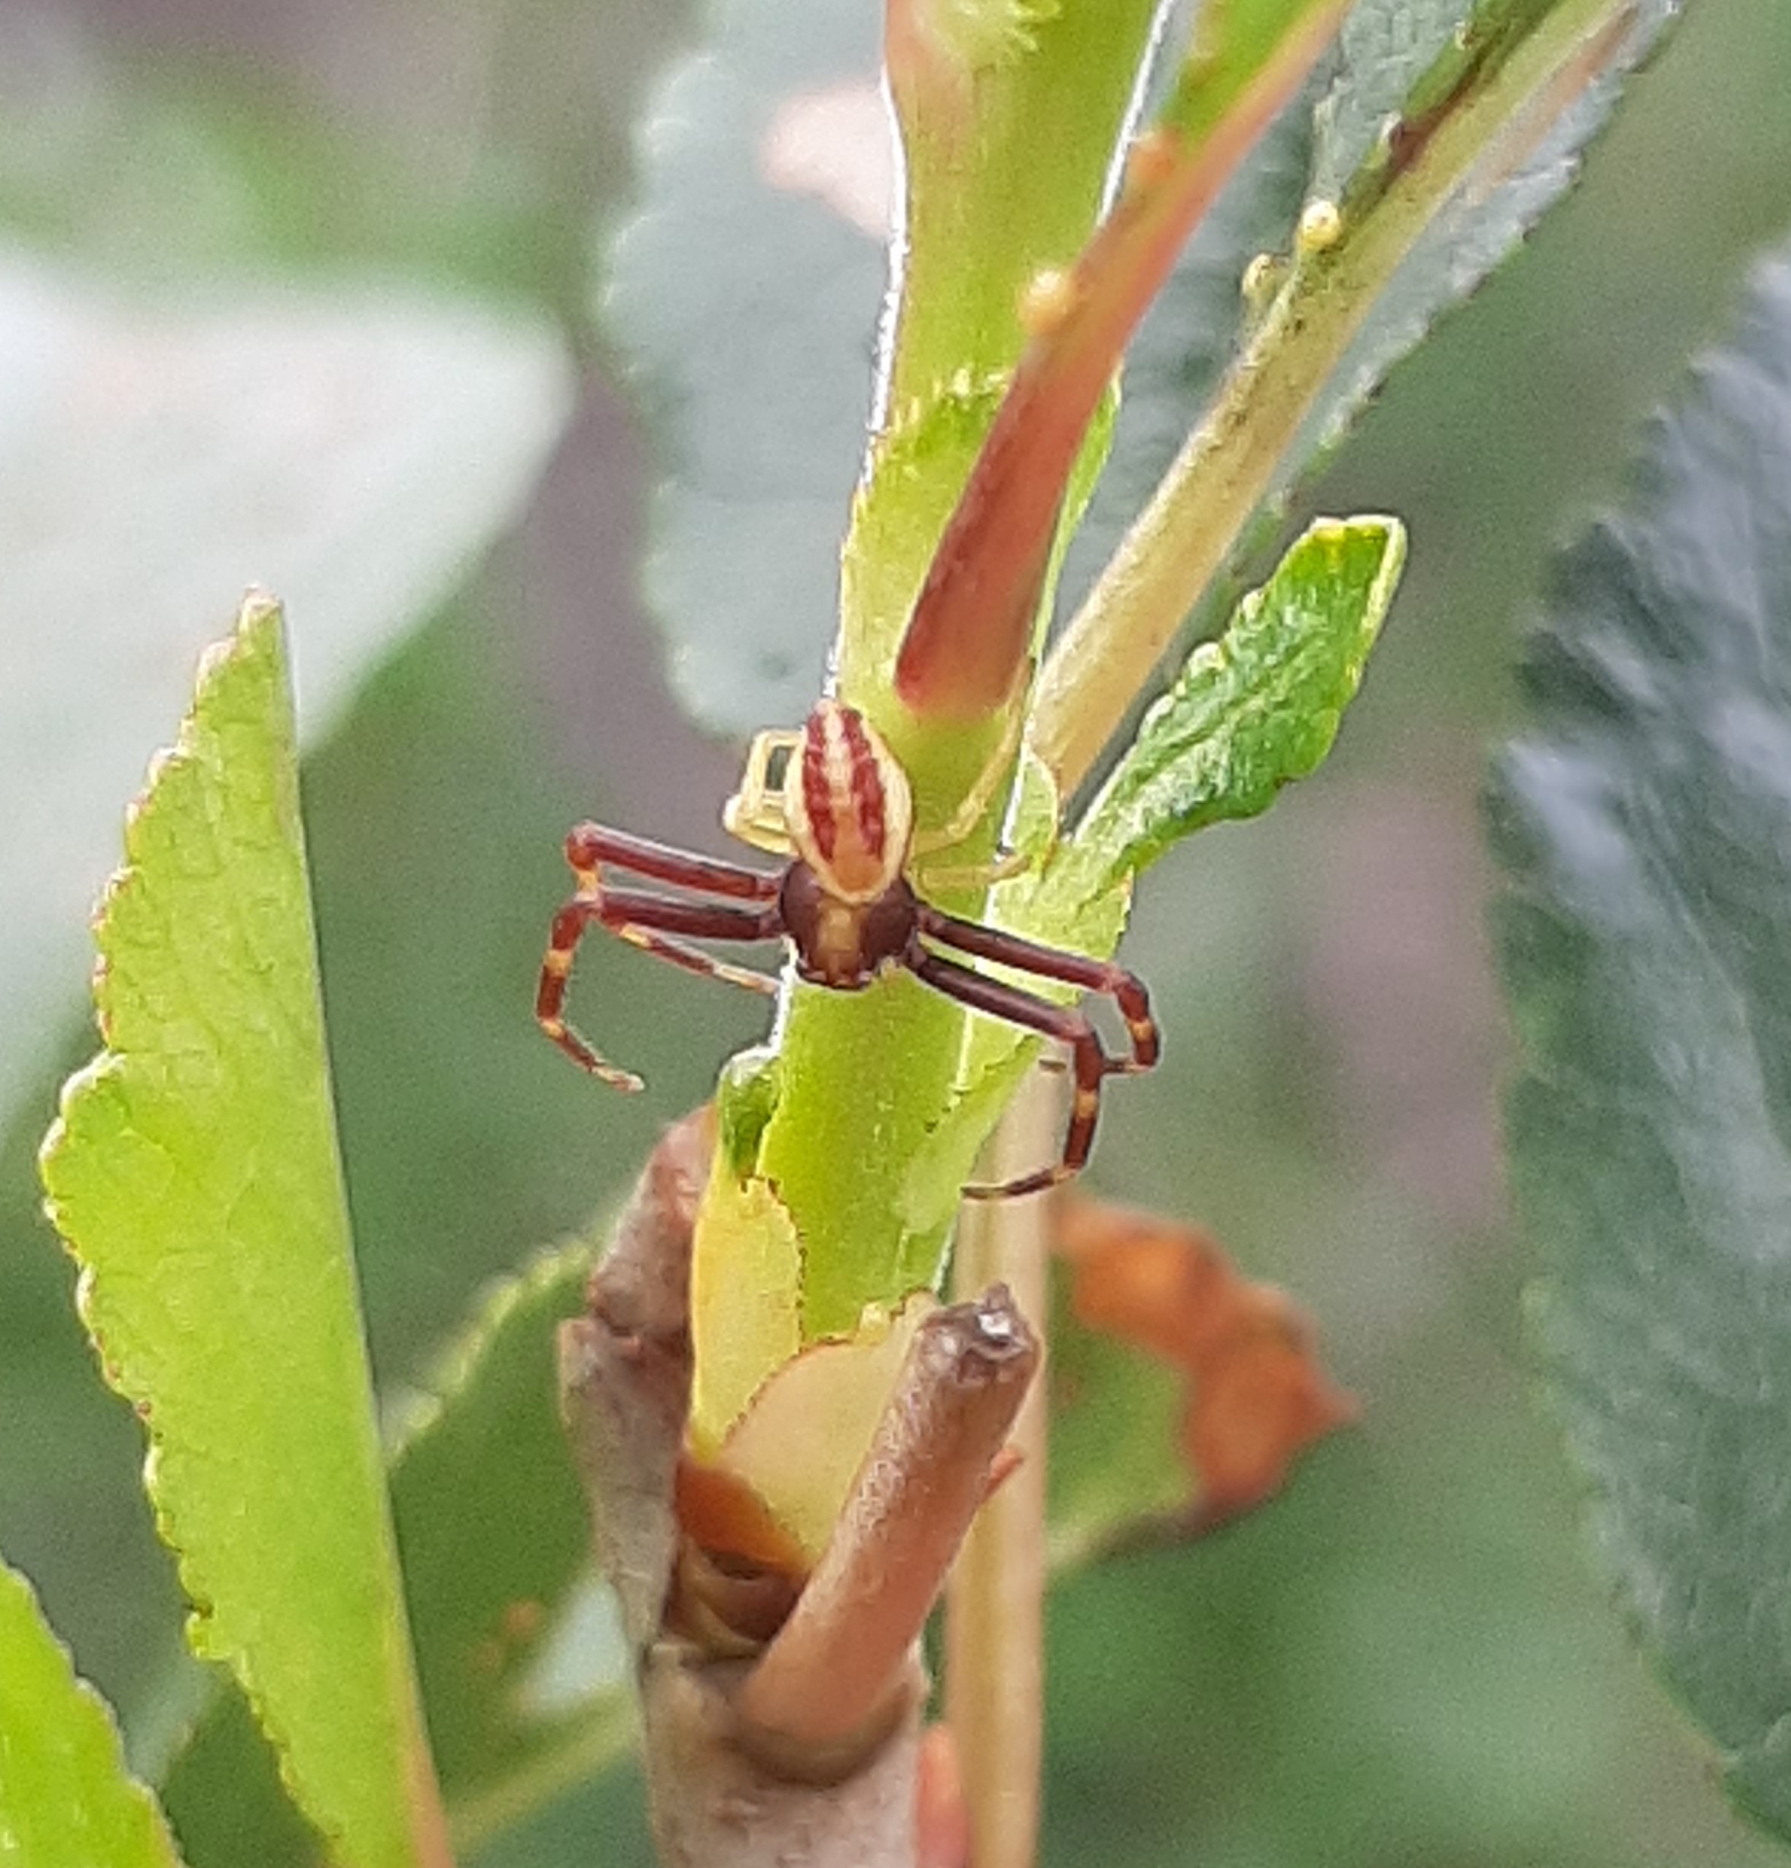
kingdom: Animalia
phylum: Arthropoda
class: Arachnida
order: Araneae
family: Thomisidae
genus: Misumena
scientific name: Misumena vatia
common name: Goldenrod crab spider
